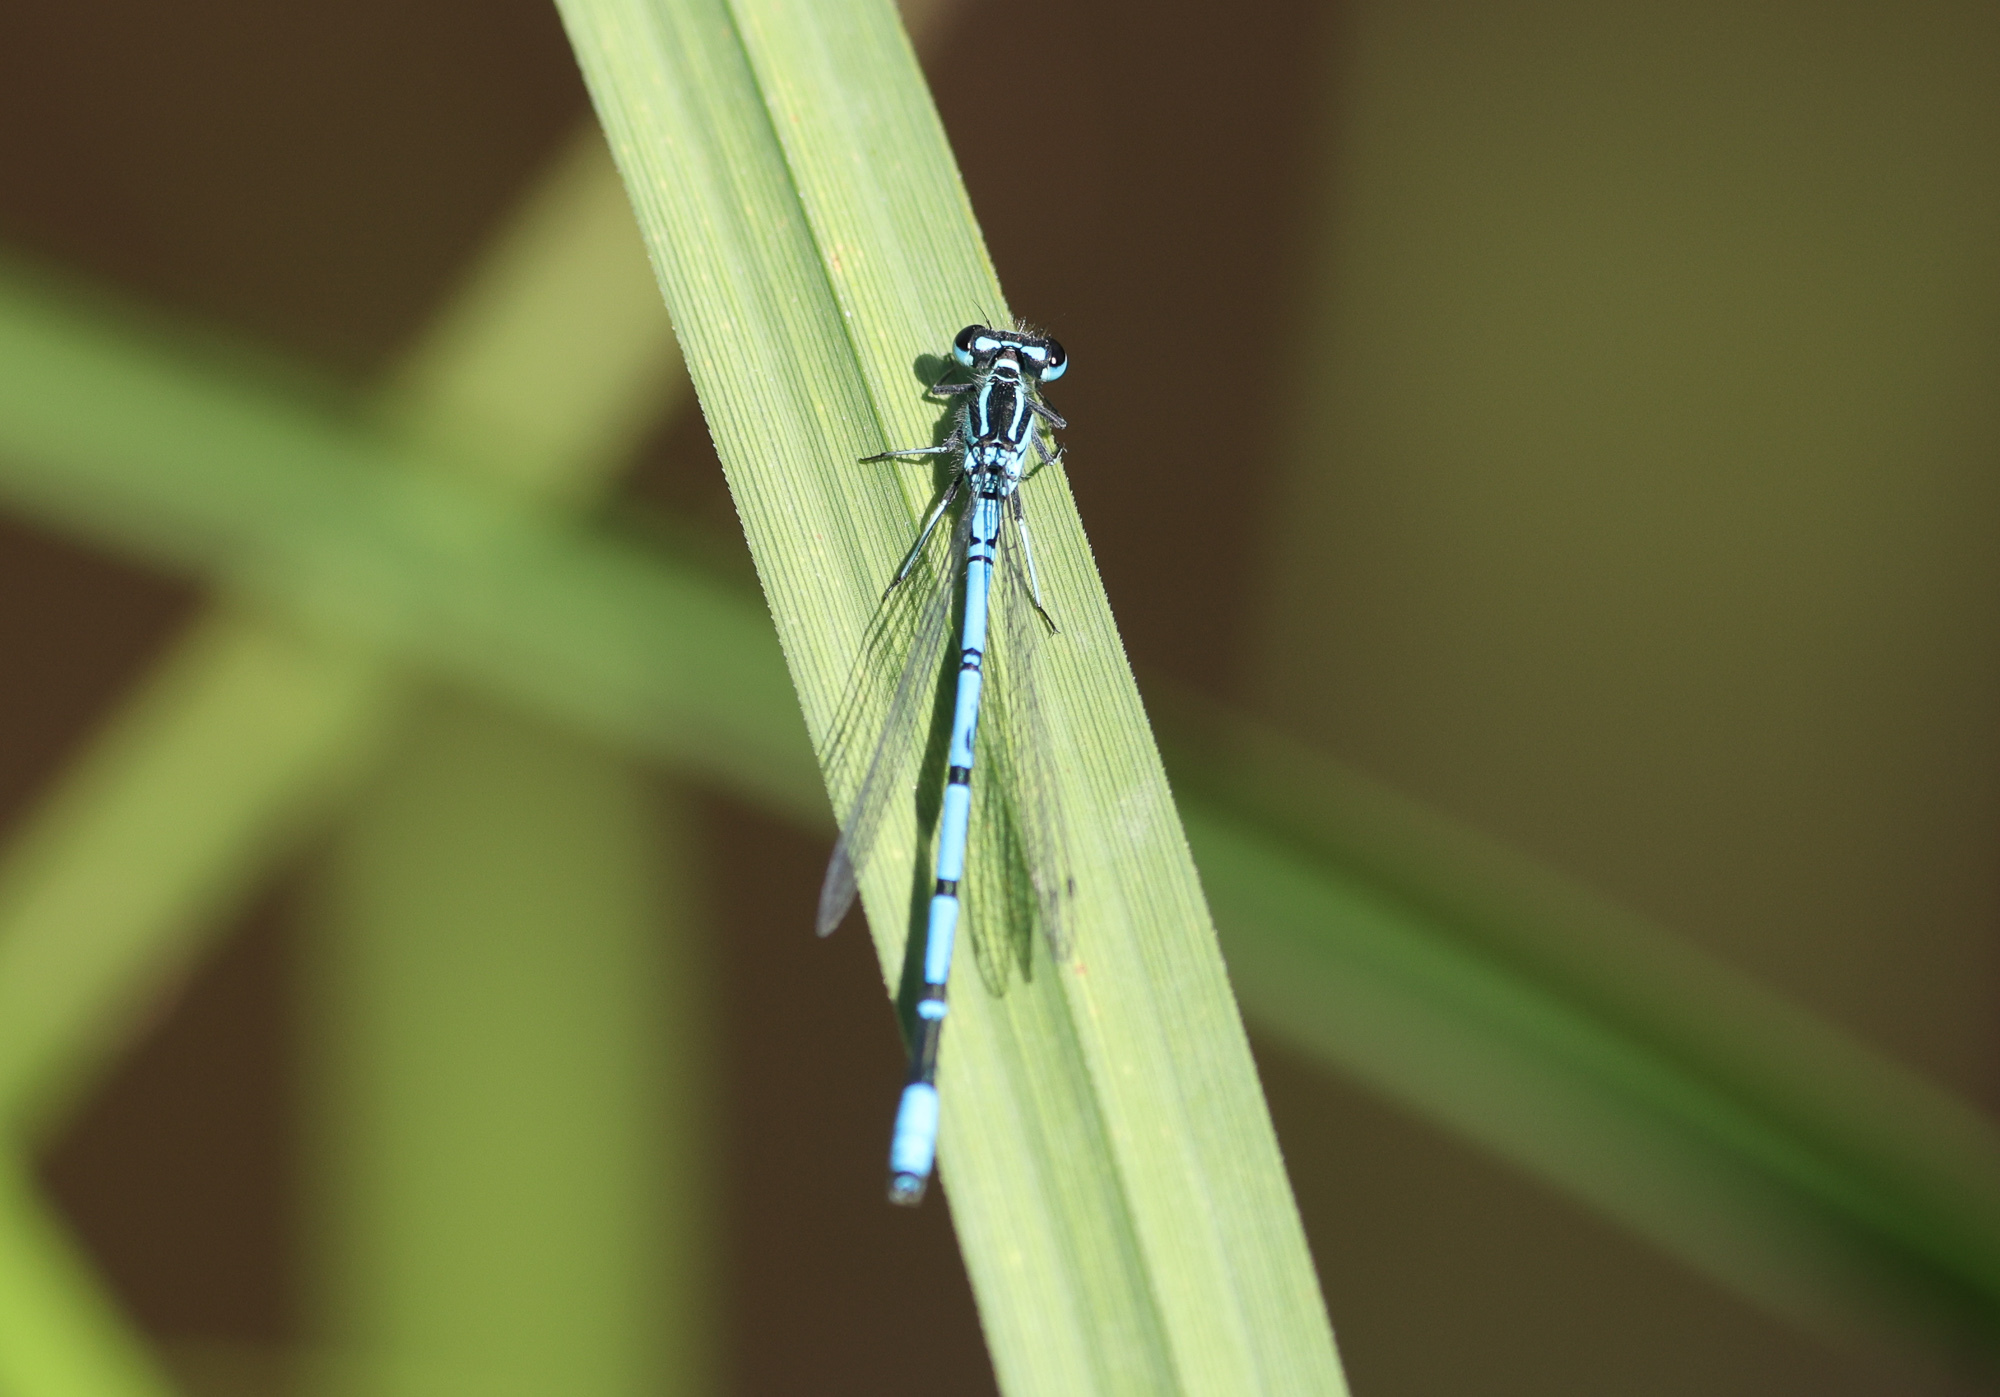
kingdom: Animalia
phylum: Arthropoda
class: Insecta
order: Odonata
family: Coenagrionidae
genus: Coenagrion
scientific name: Coenagrion puella
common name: Azure damselfly
